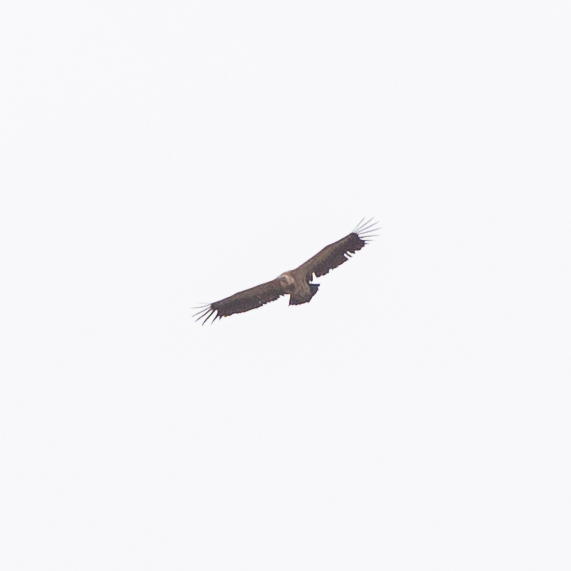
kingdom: Animalia
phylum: Chordata
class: Aves
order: Accipitriformes
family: Accipitridae
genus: Gyps
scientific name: Gyps fulvus
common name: Griffon vulture
